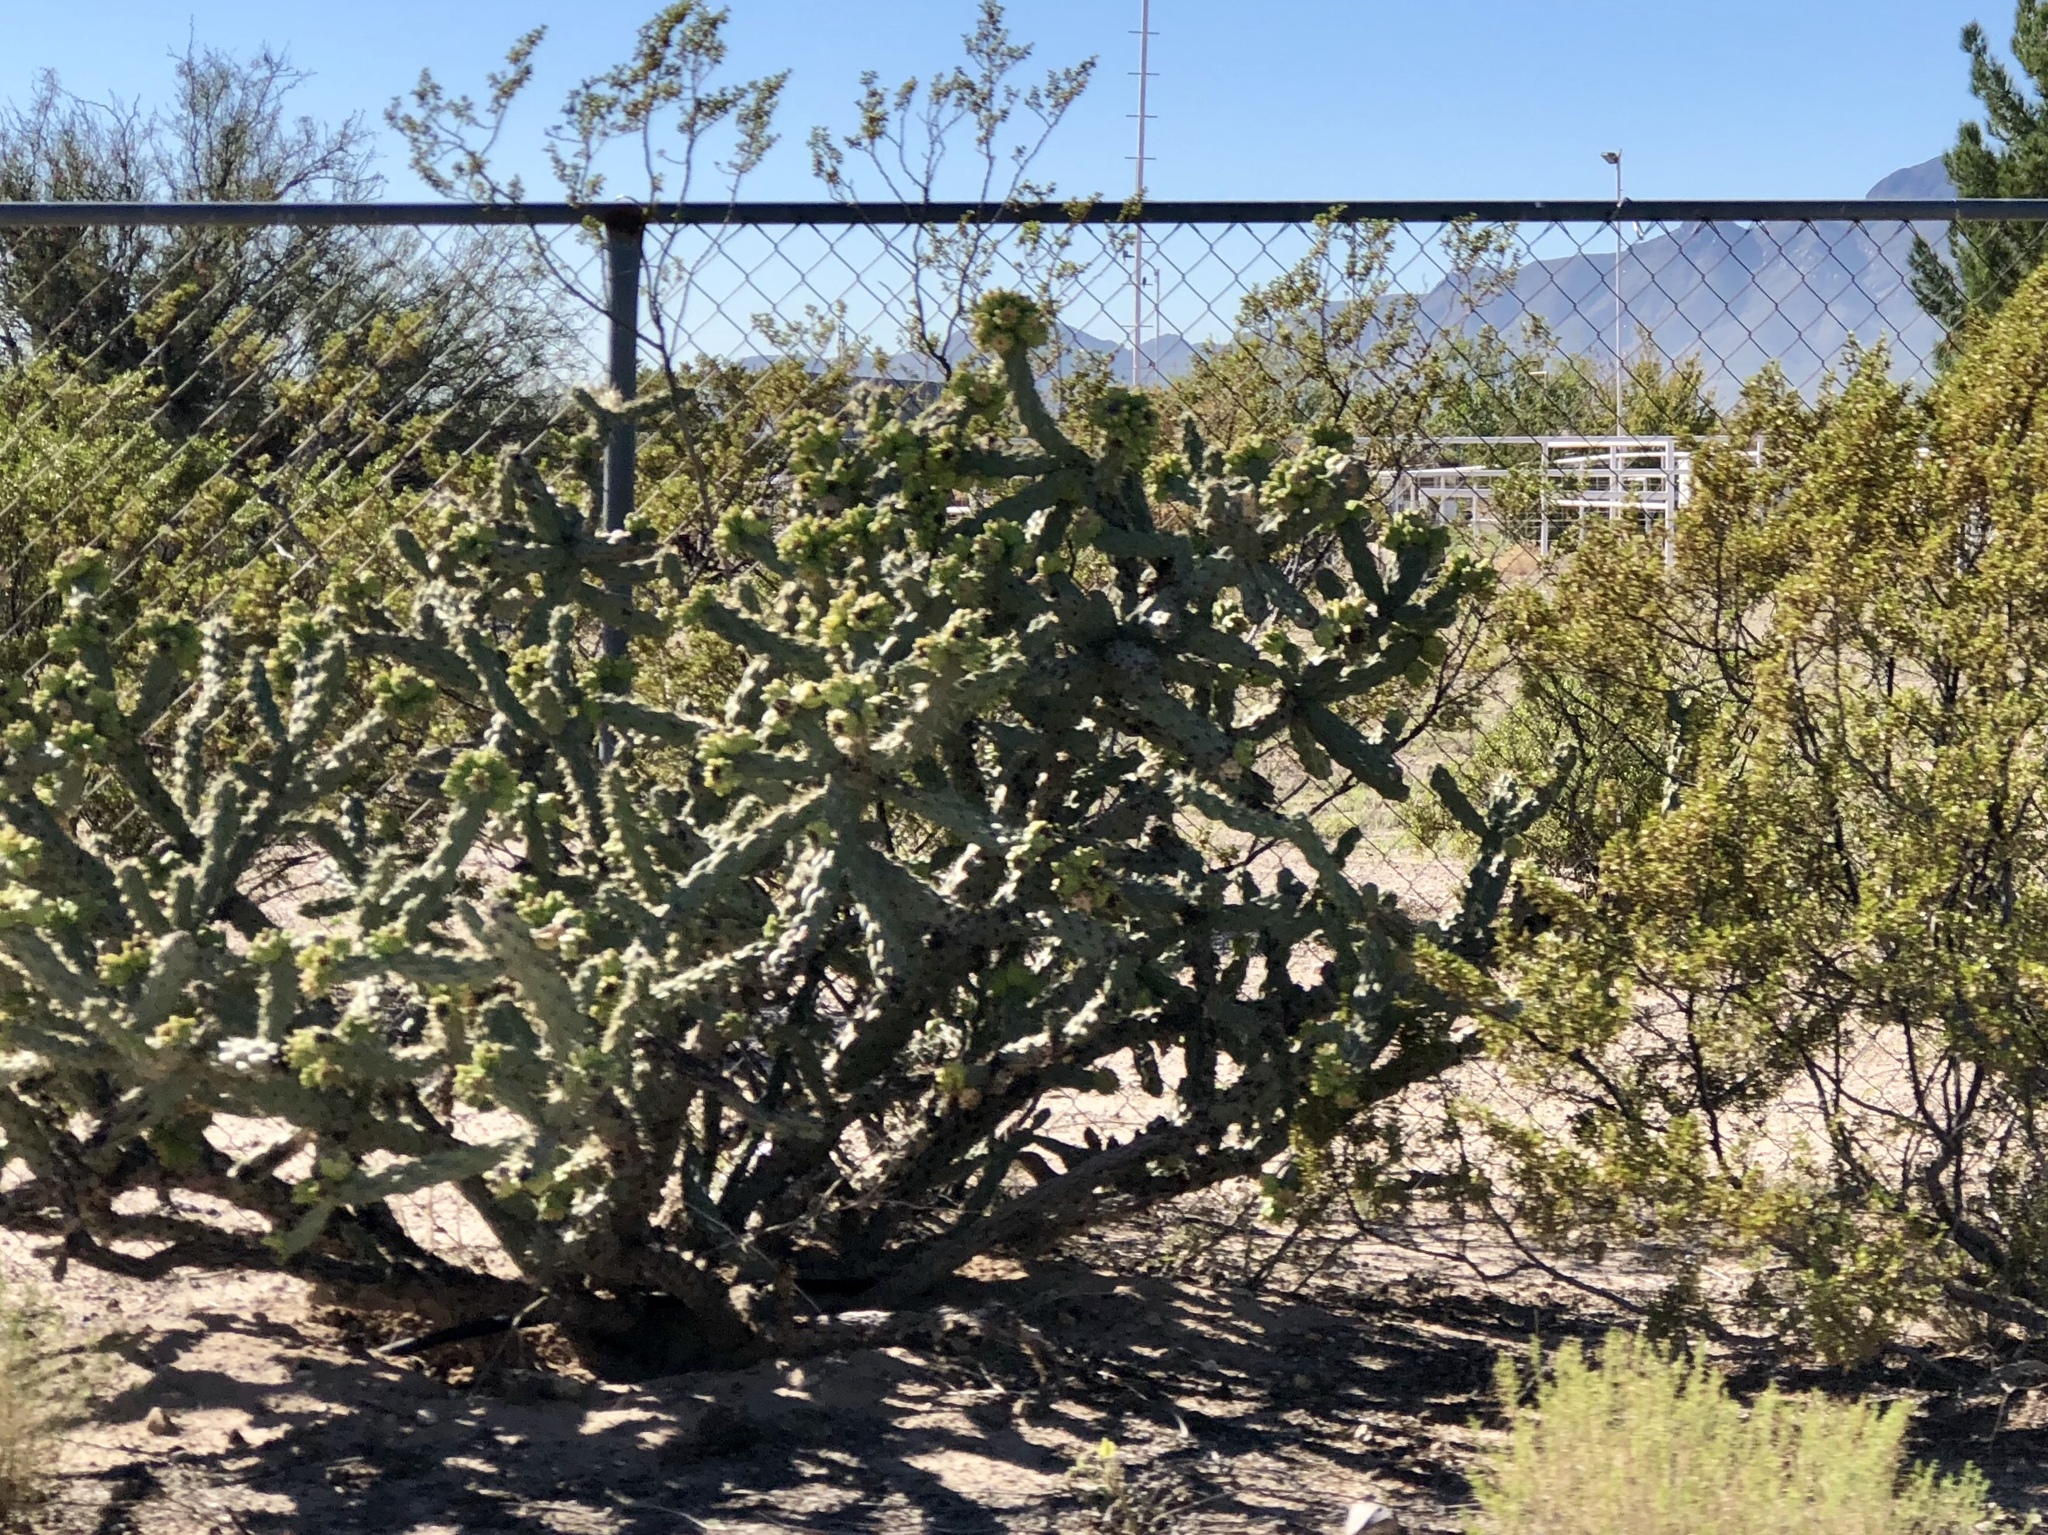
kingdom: Plantae
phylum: Tracheophyta
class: Magnoliopsida
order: Caryophyllales
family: Cactaceae
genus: Cylindropuntia
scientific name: Cylindropuntia imbricata
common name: Candelabrum cactus
